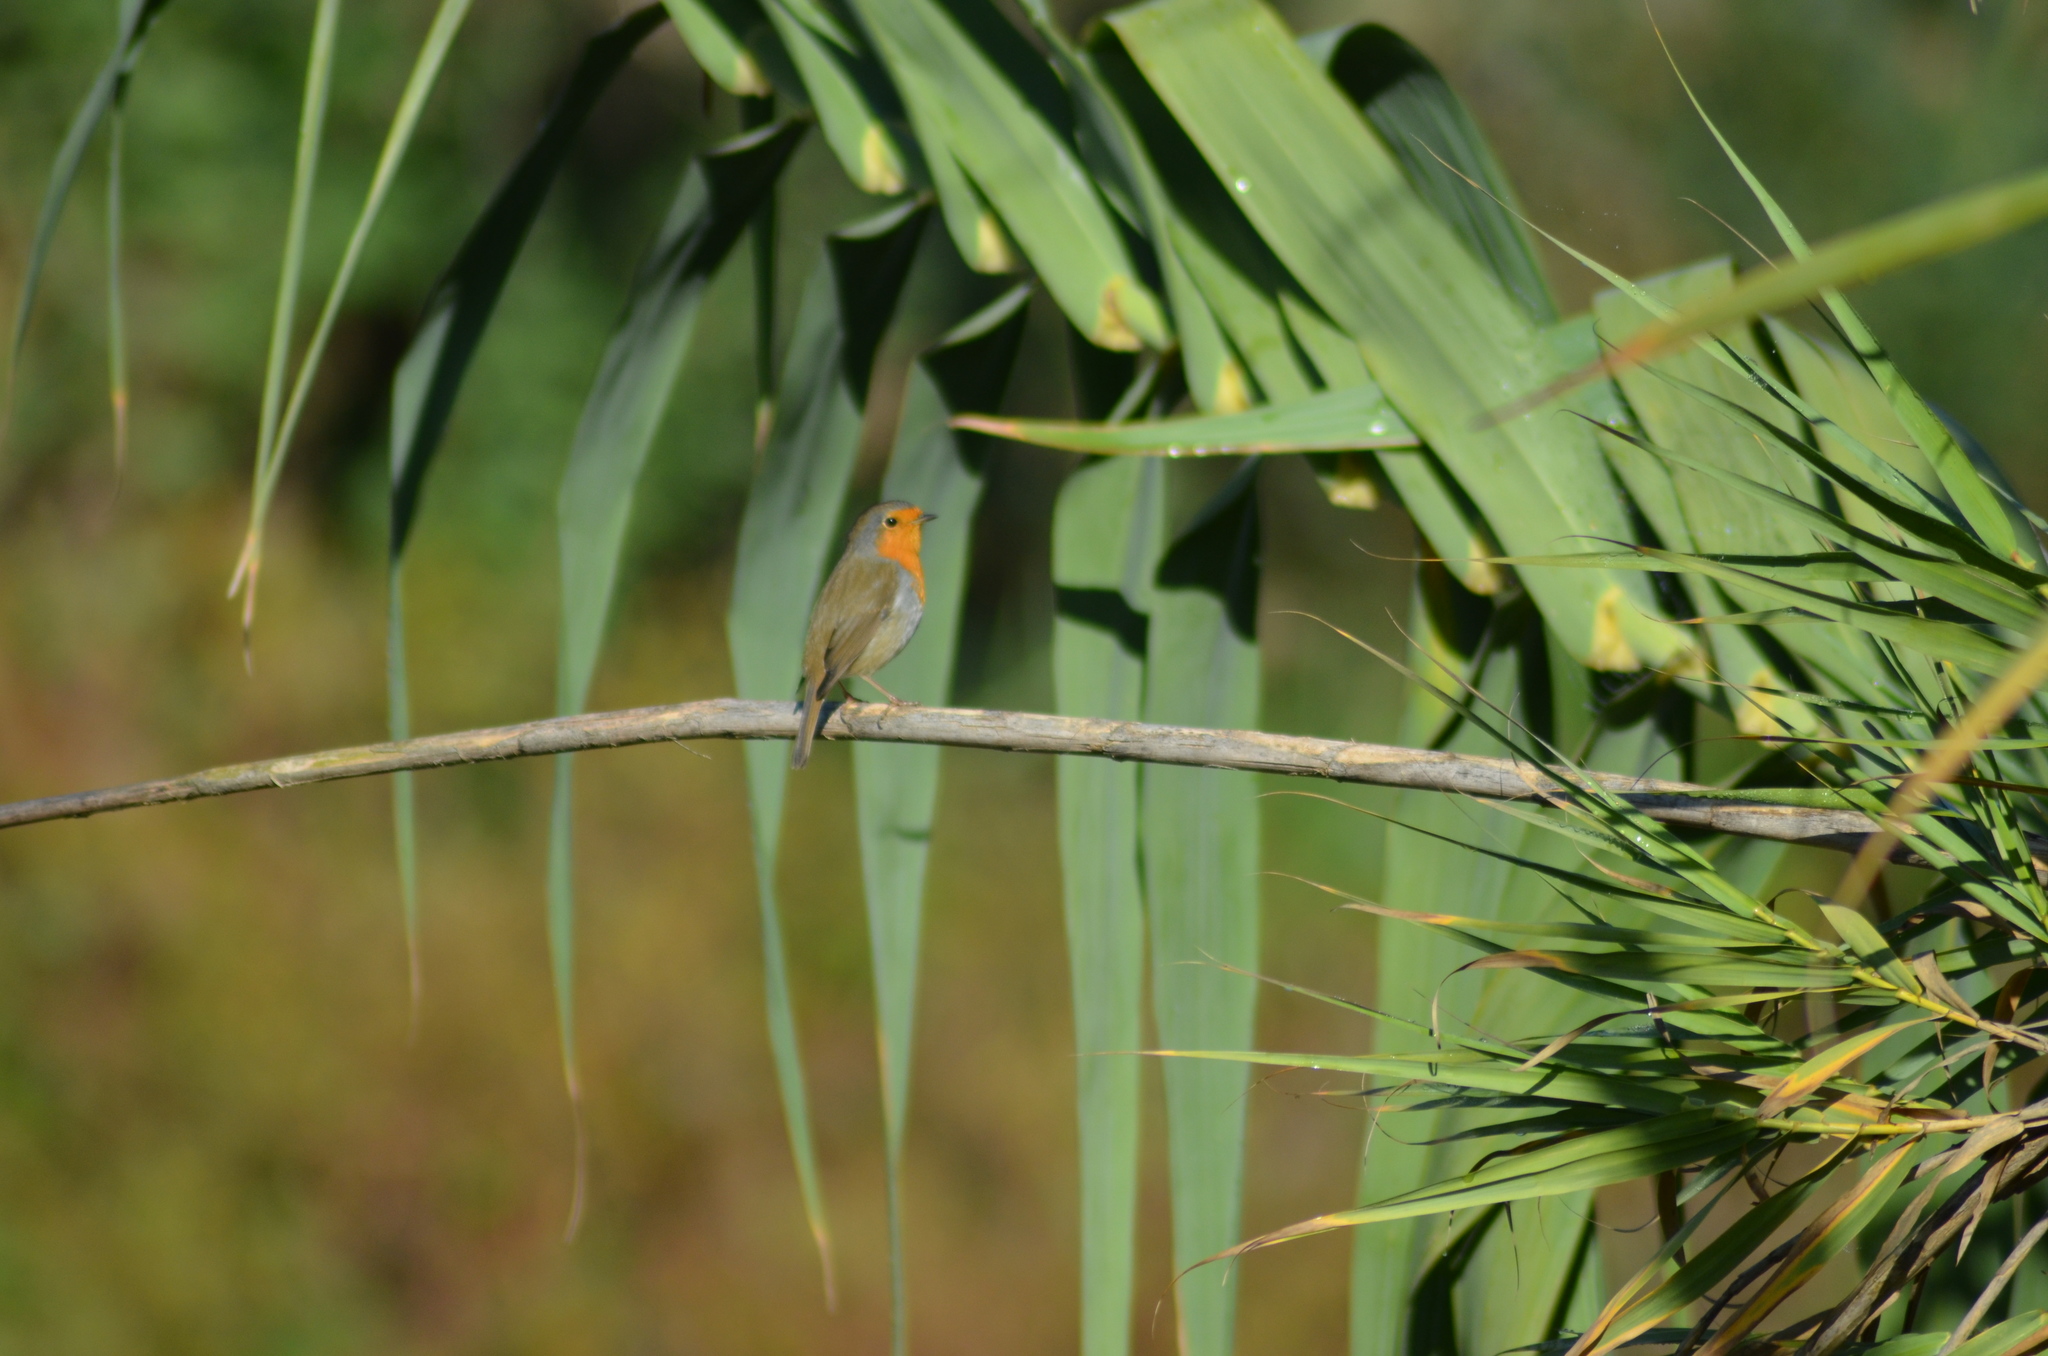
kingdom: Animalia
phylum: Chordata
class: Aves
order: Passeriformes
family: Muscicapidae
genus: Erithacus
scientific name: Erithacus rubecula
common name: European robin
